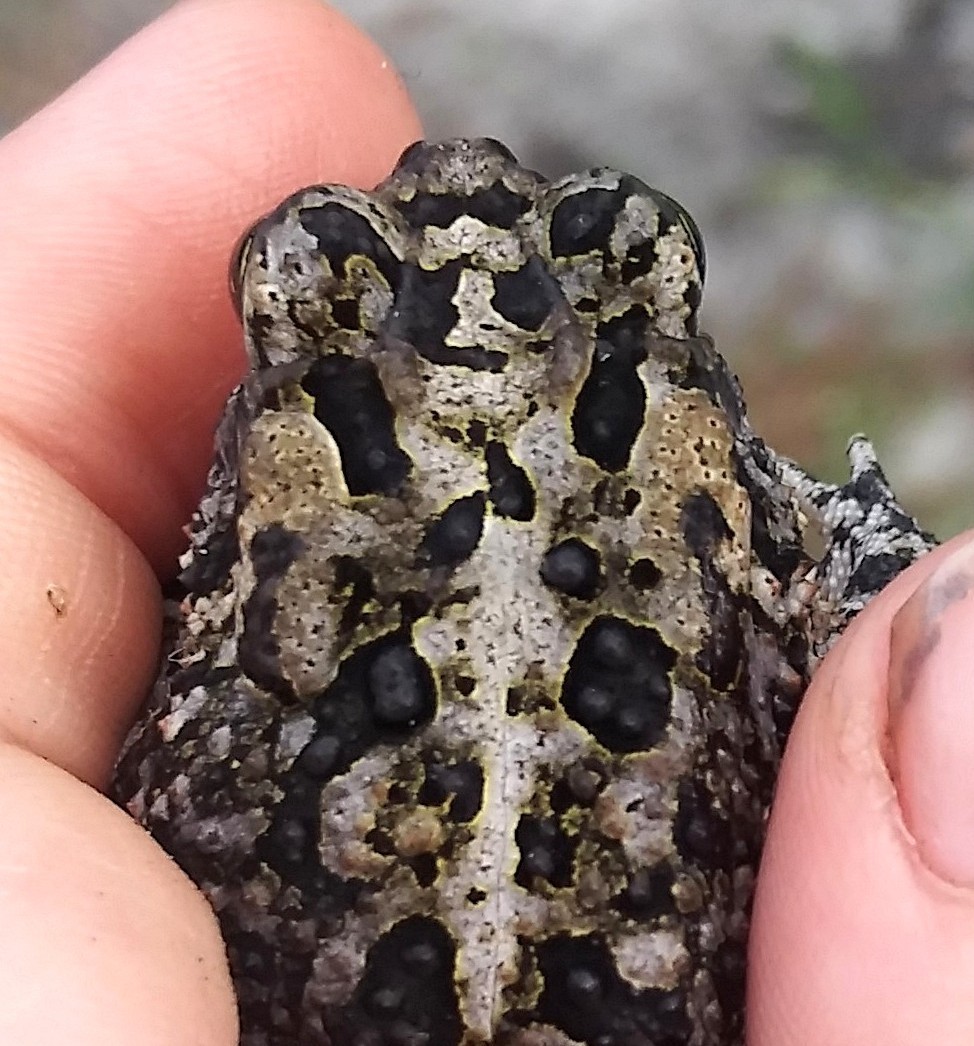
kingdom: Animalia
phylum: Chordata
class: Amphibia
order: Anura
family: Bufonidae
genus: Anaxyrus
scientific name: Anaxyrus terrestris
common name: Southern toad
